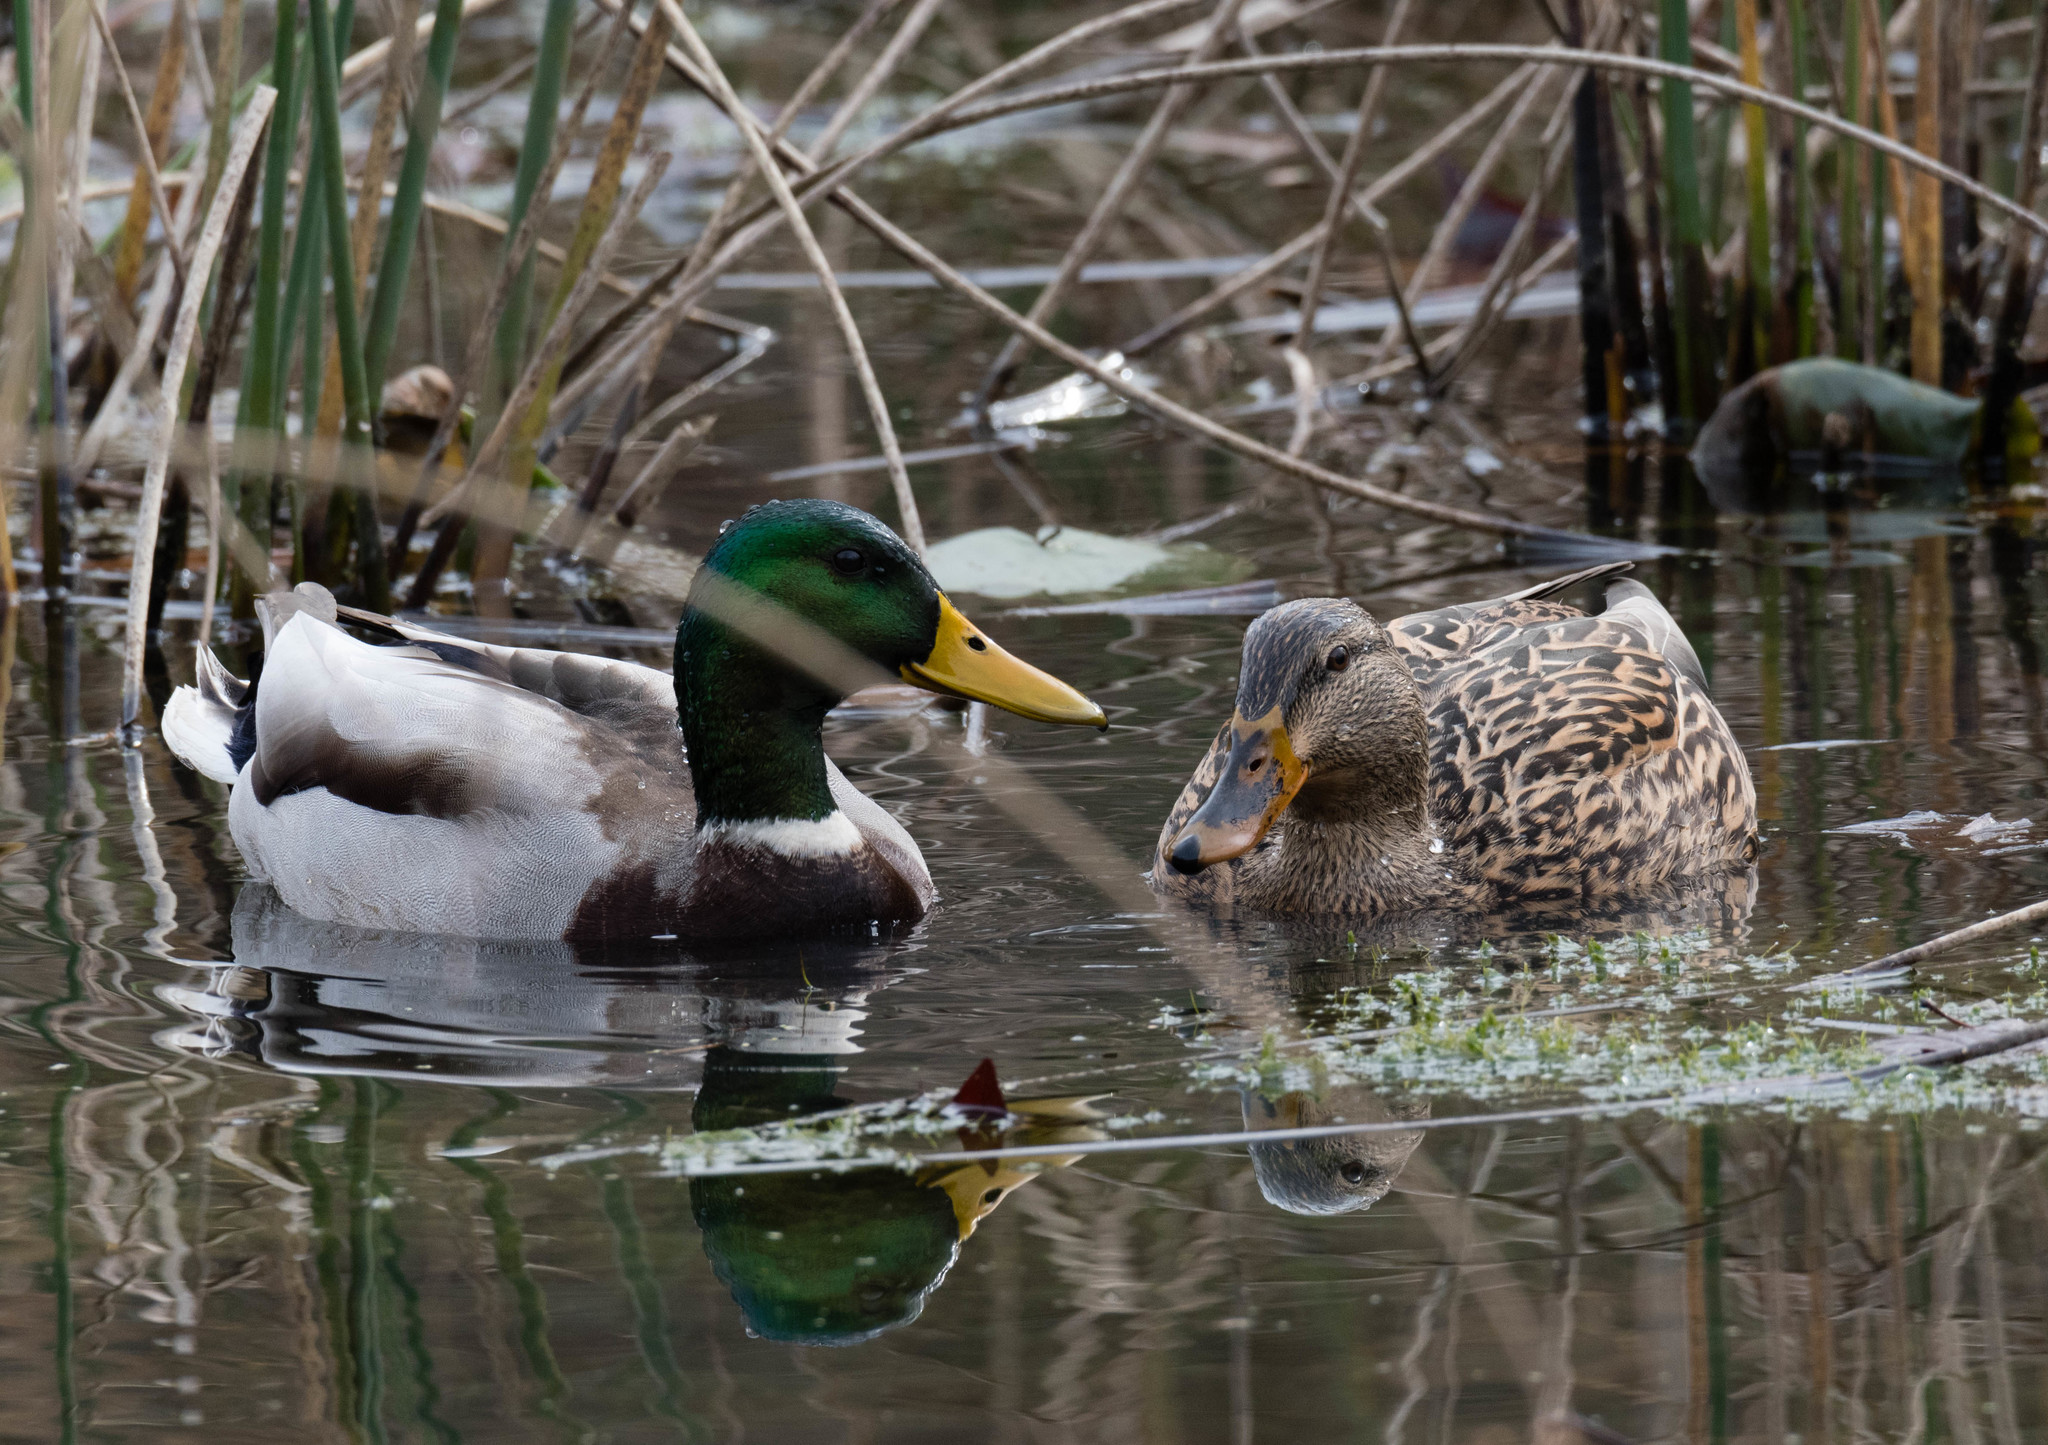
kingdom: Animalia
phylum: Chordata
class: Aves
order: Anseriformes
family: Anatidae
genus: Anas
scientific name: Anas platyrhynchos
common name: Mallard
